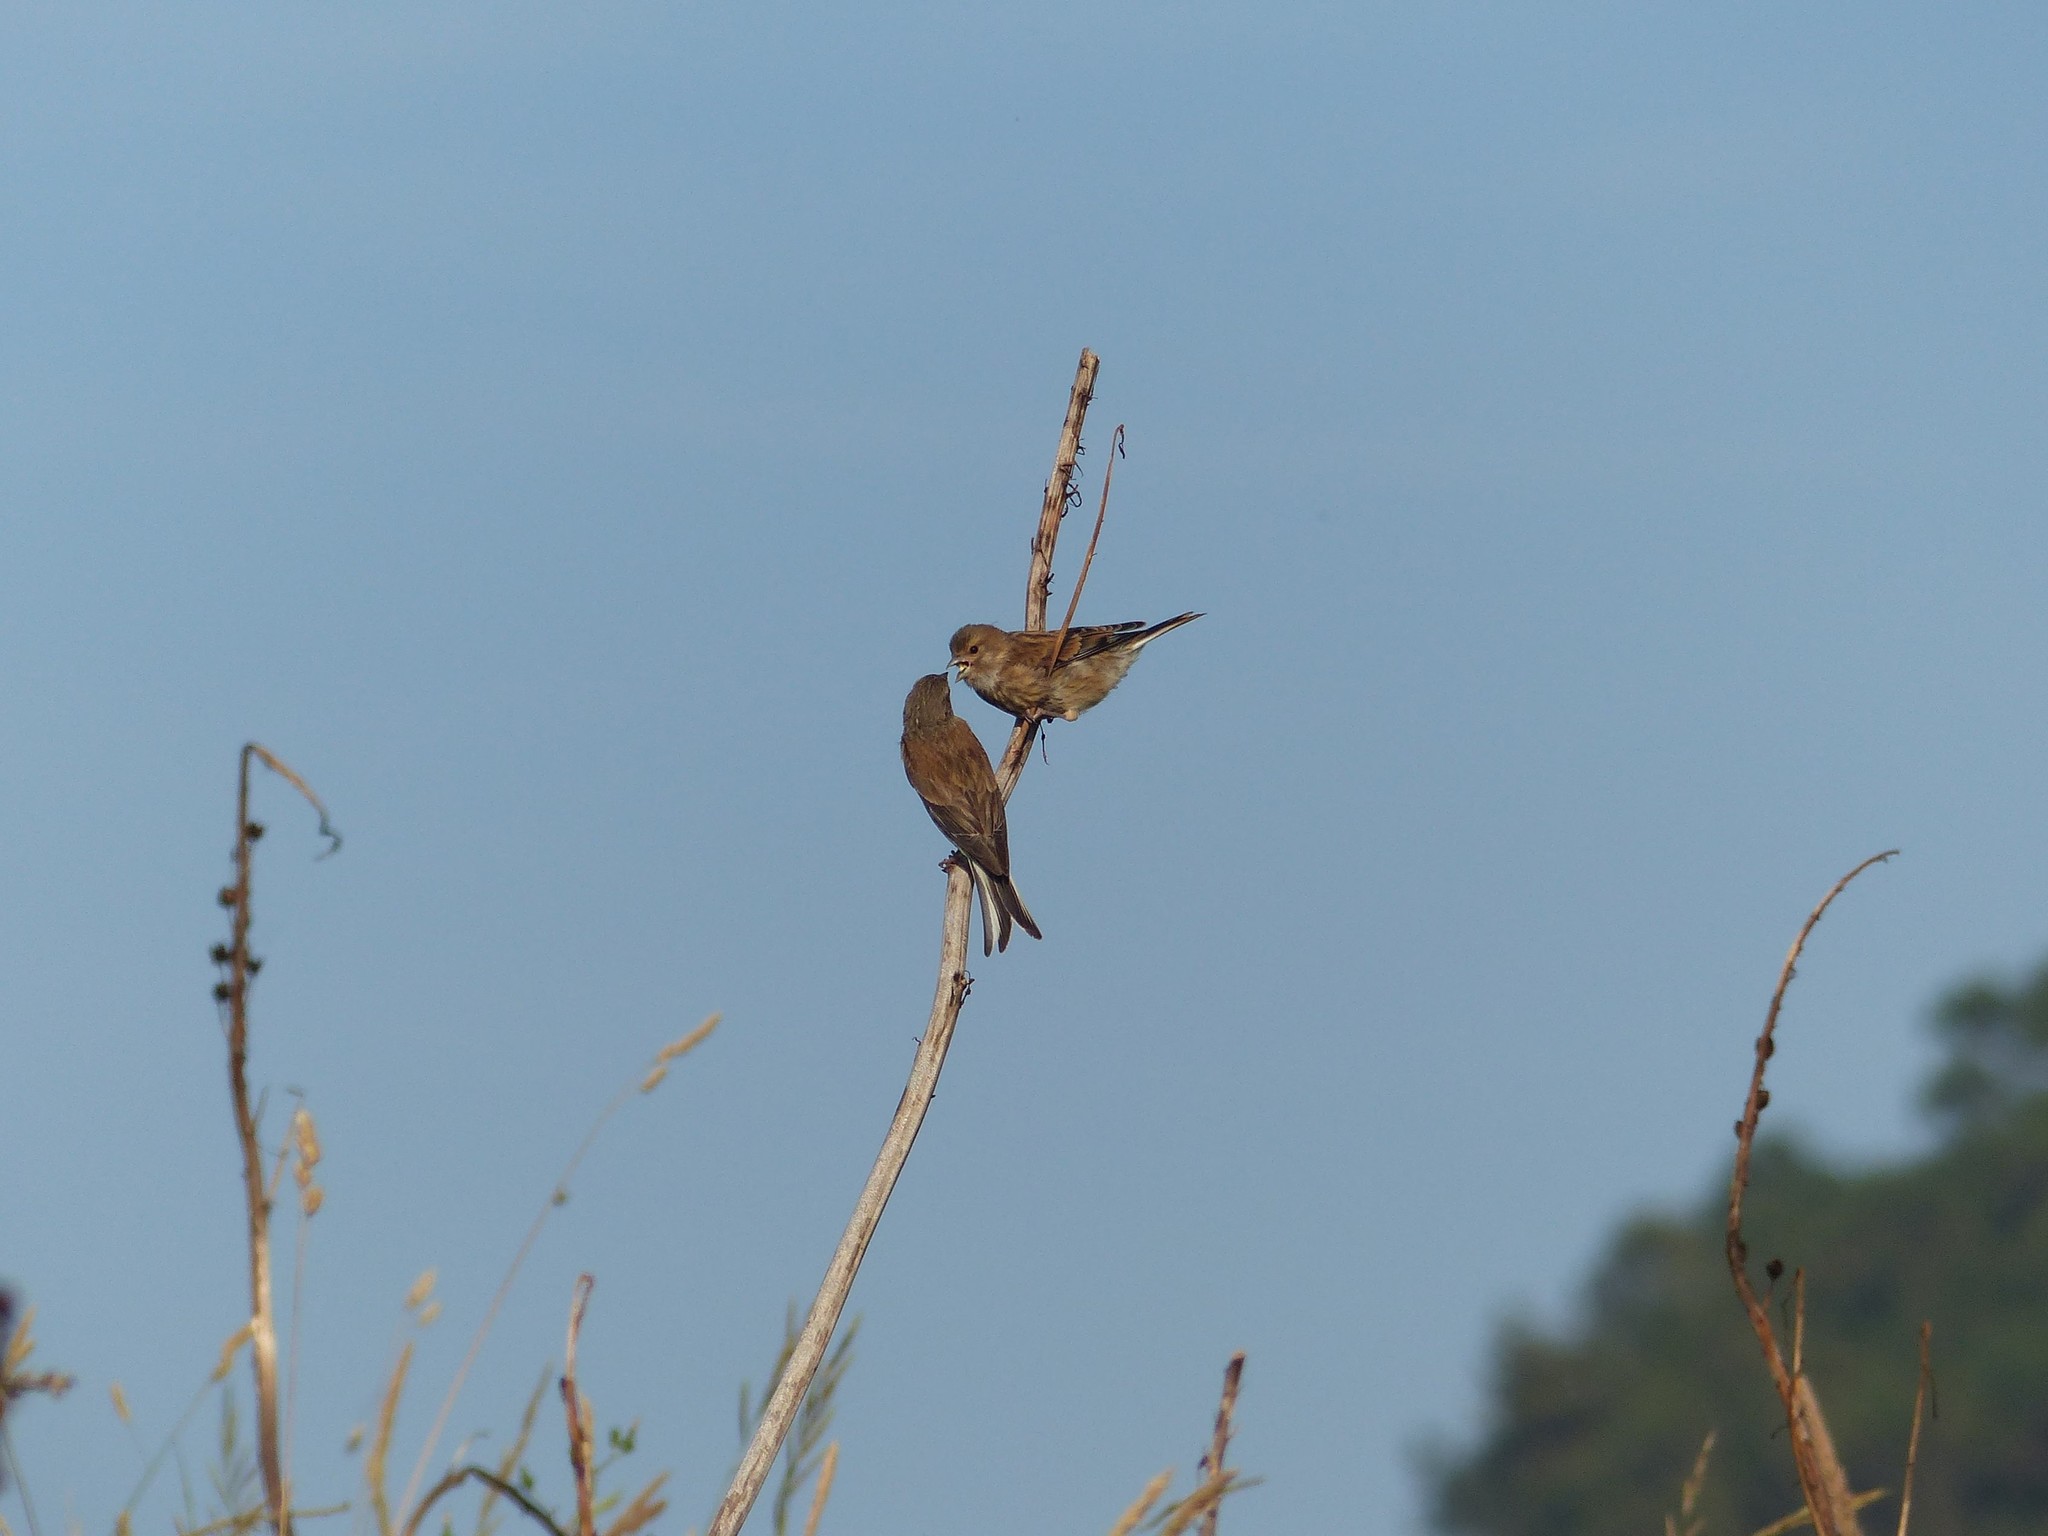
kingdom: Animalia
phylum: Chordata
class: Aves
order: Passeriformes
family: Fringillidae
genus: Linaria
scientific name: Linaria cannabina
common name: Common linnet
